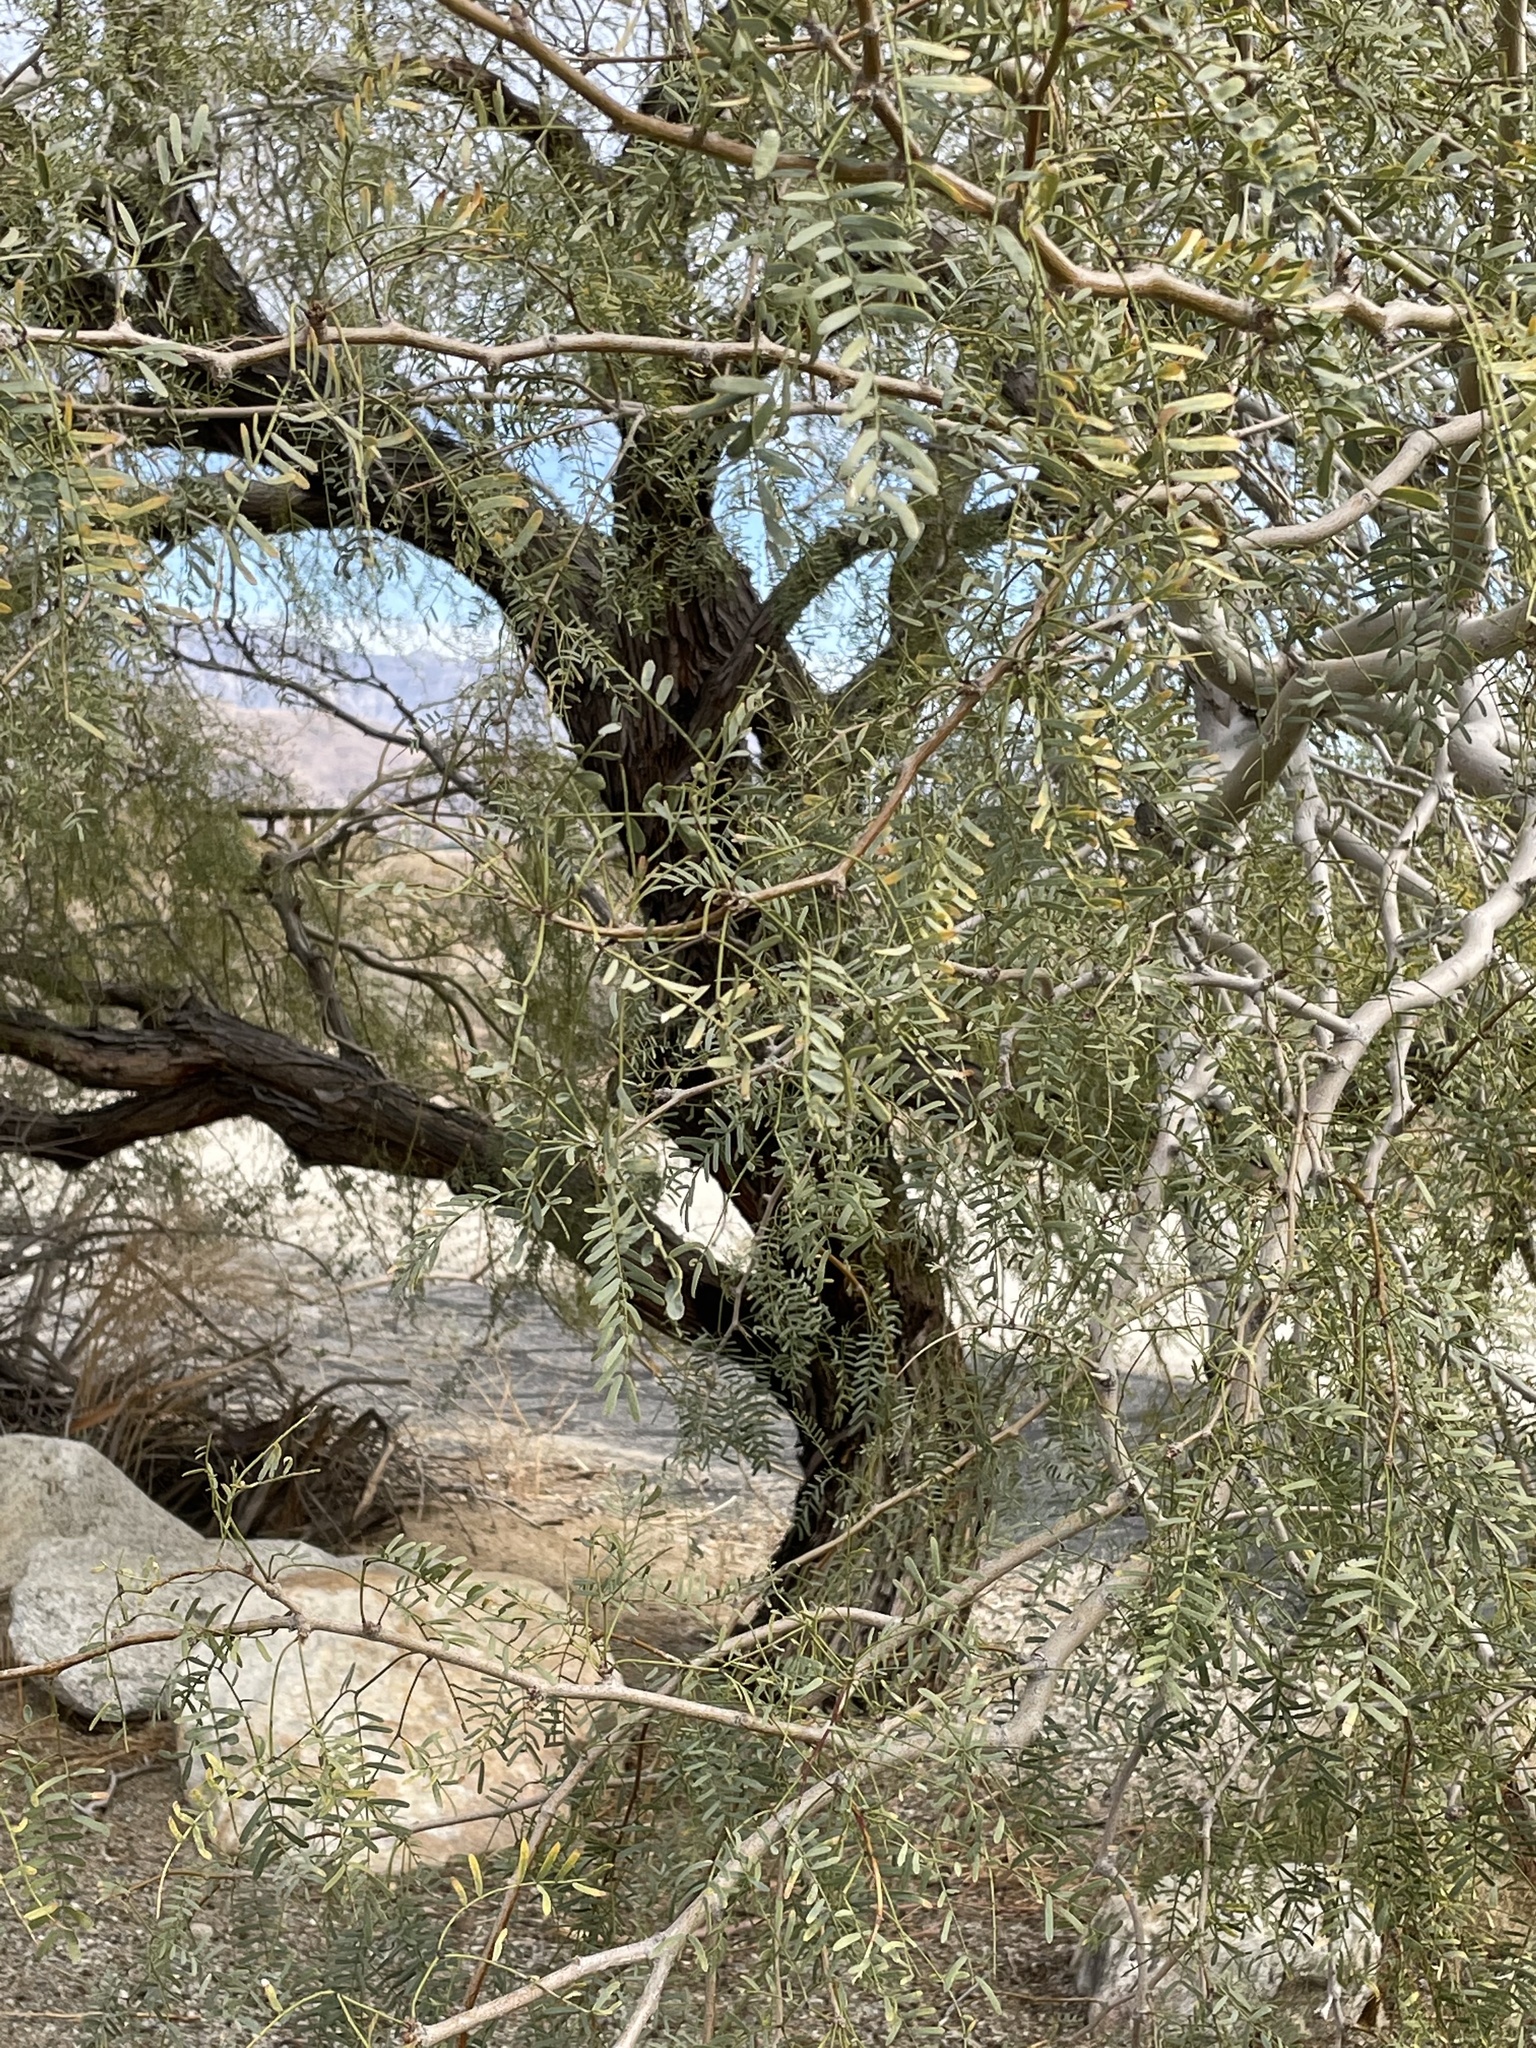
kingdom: Plantae
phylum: Tracheophyta
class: Magnoliopsida
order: Fabales
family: Fabaceae
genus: Prosopis
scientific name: Prosopis pubescens
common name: Screw-bean
